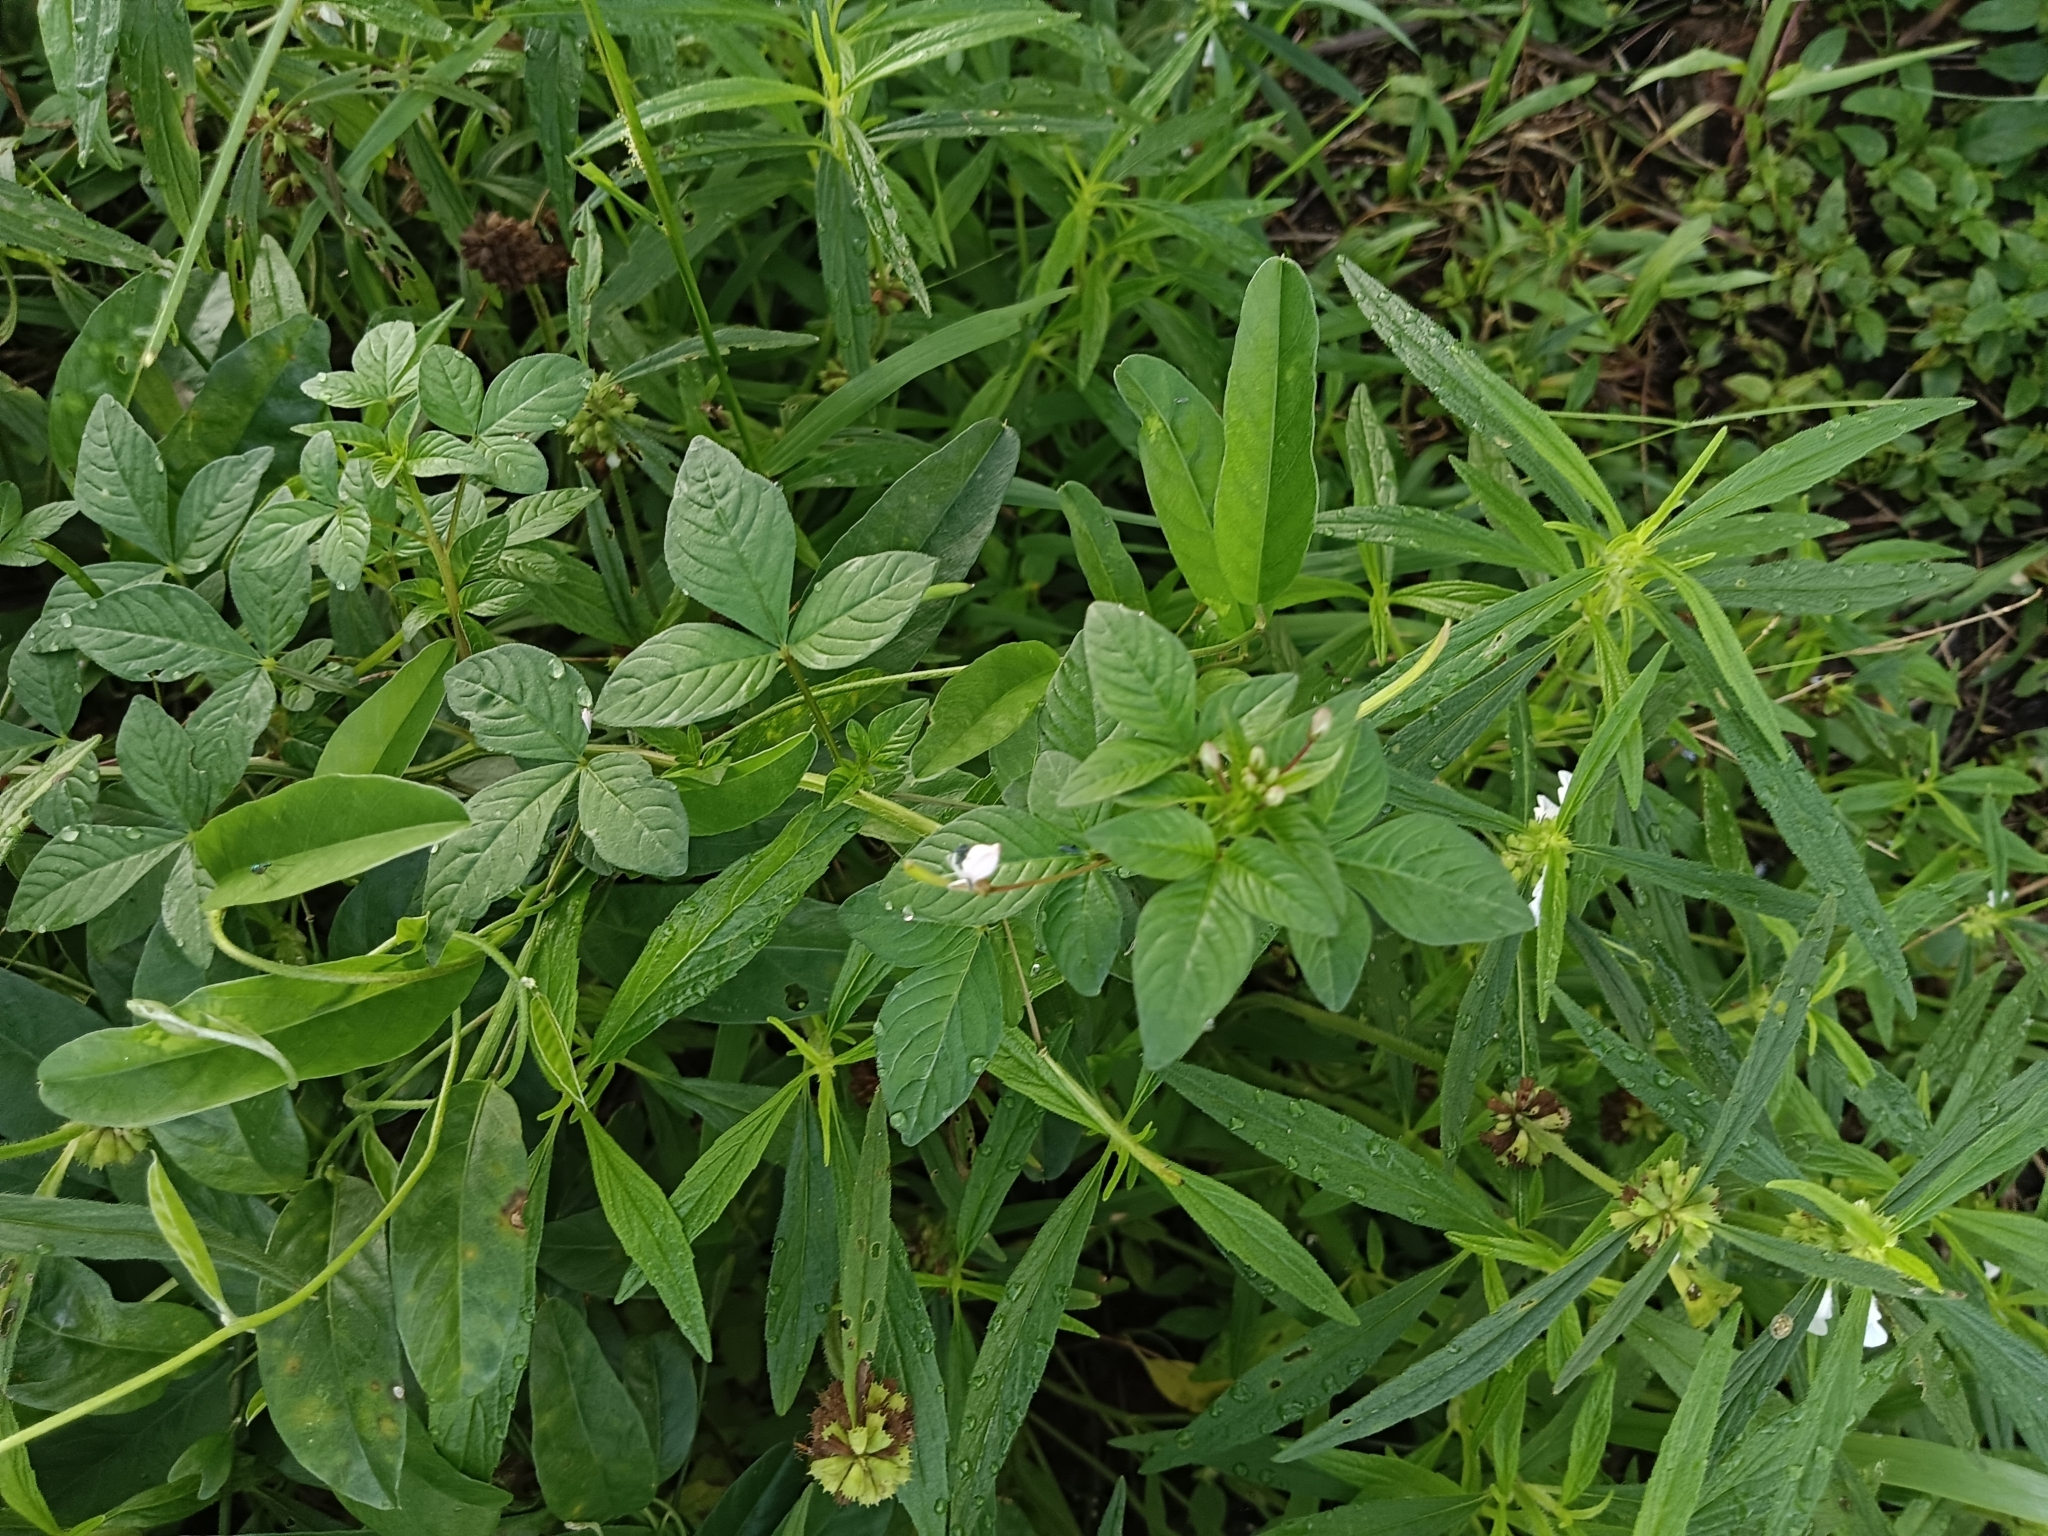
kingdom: Plantae
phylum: Tracheophyta
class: Magnoliopsida
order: Brassicales
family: Cleomaceae
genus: Sieruela
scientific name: Sieruela rutidosperma
